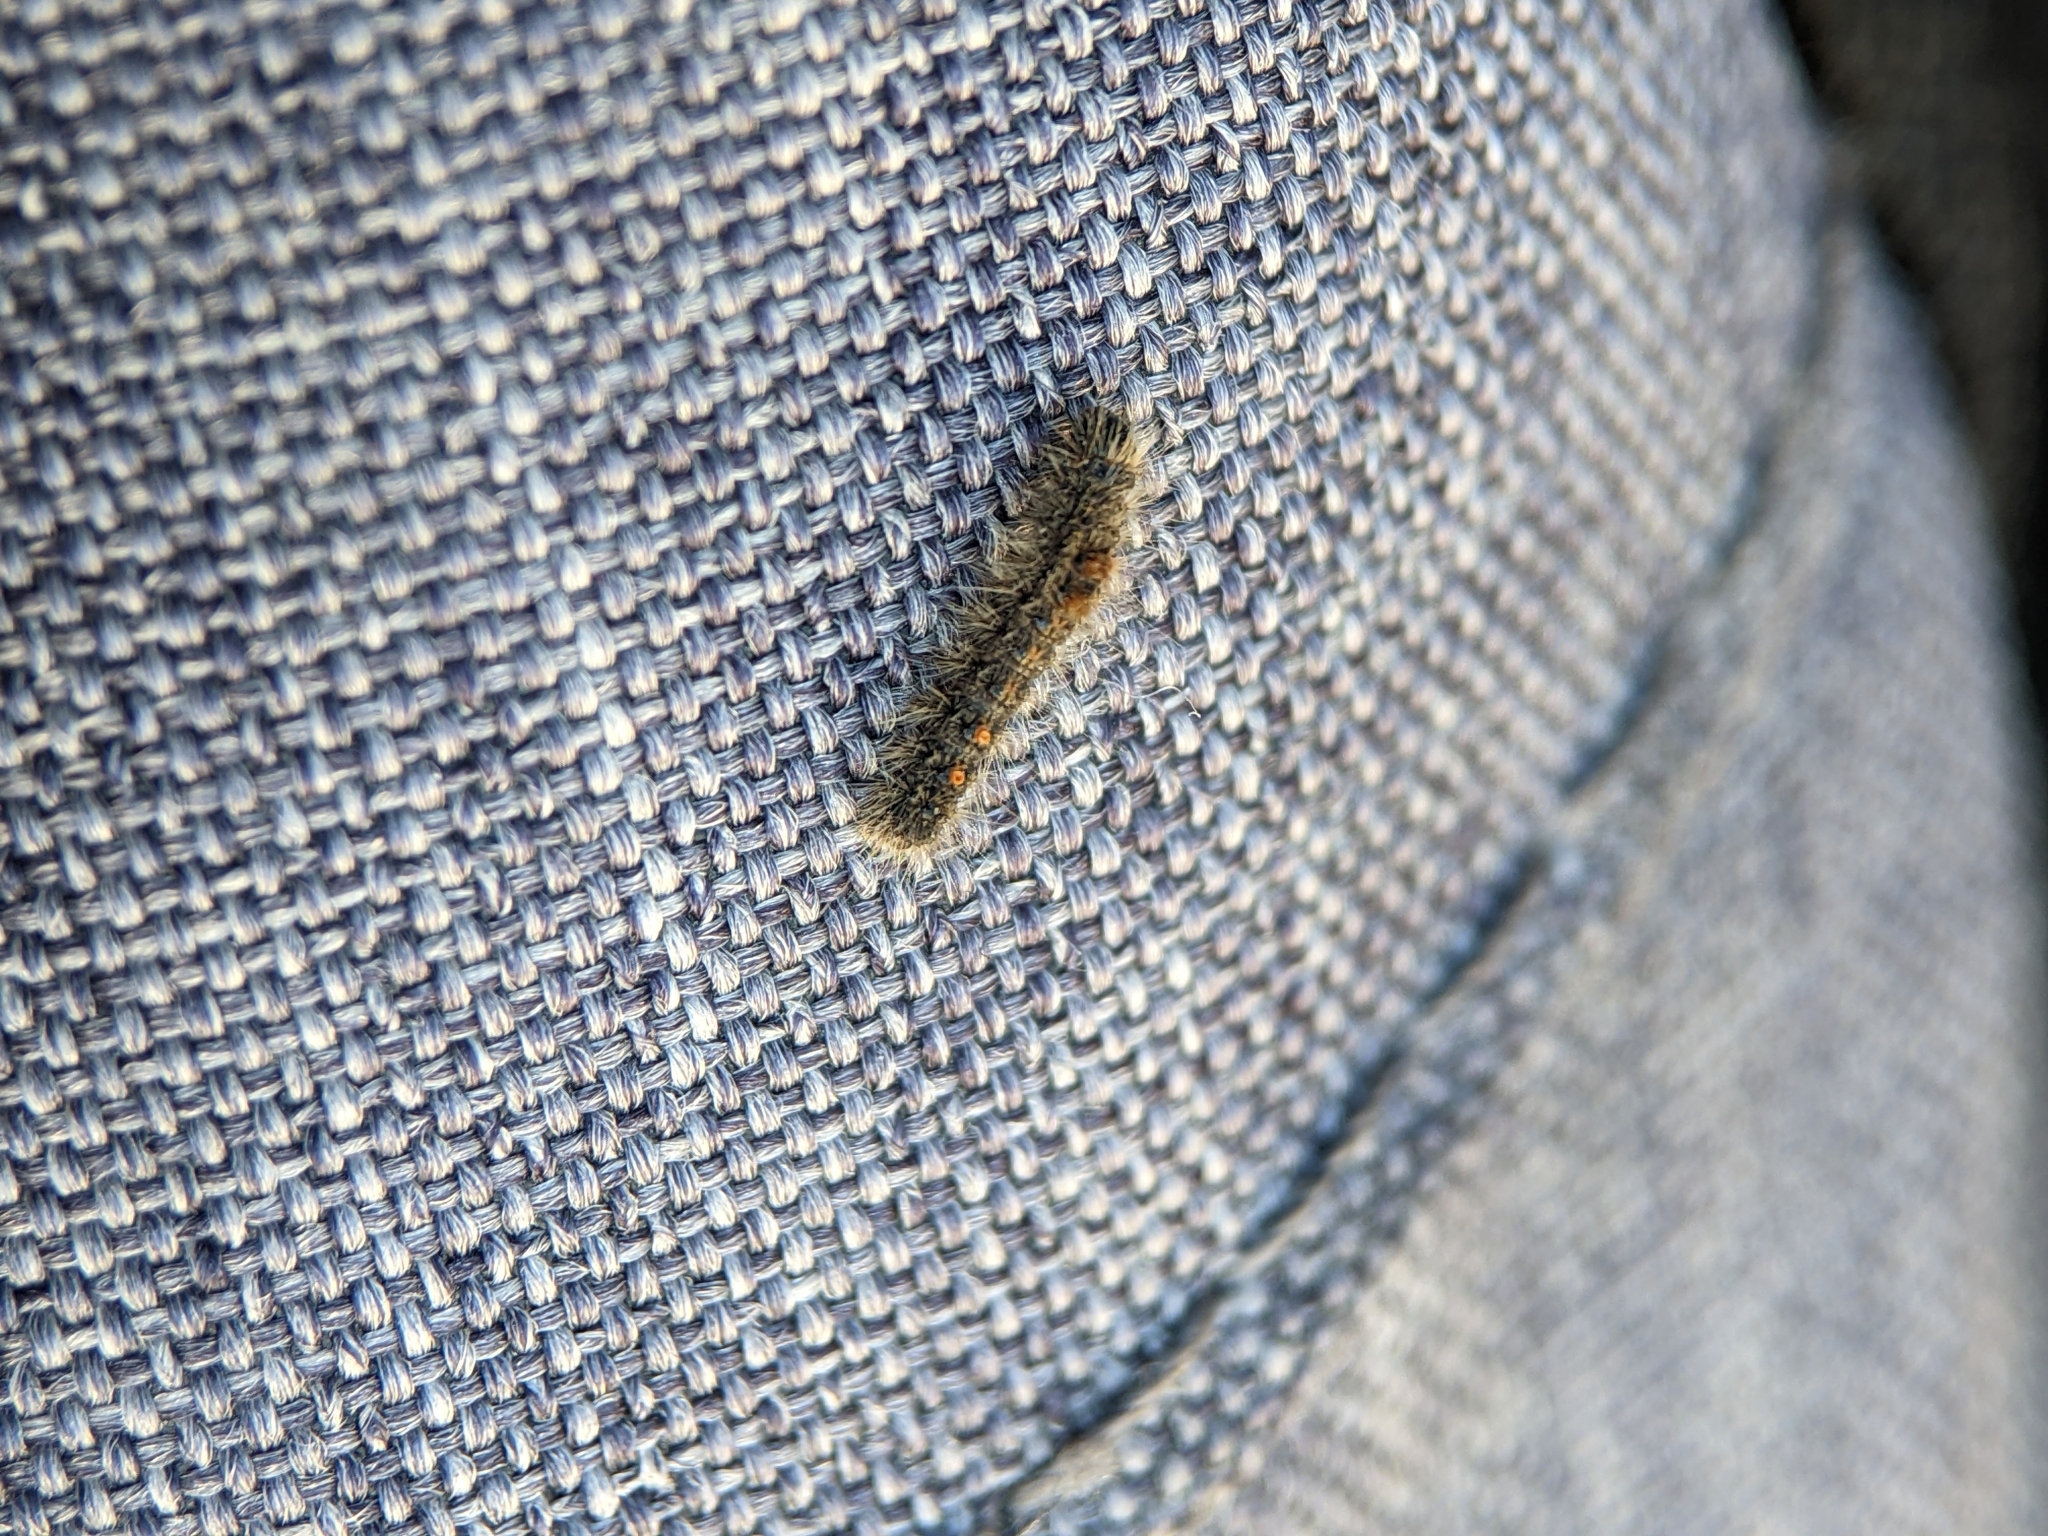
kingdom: Animalia
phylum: Arthropoda
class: Insecta
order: Lepidoptera
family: Erebidae
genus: Euproctis
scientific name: Euproctis chrysorrhoea
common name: Brown-tail
